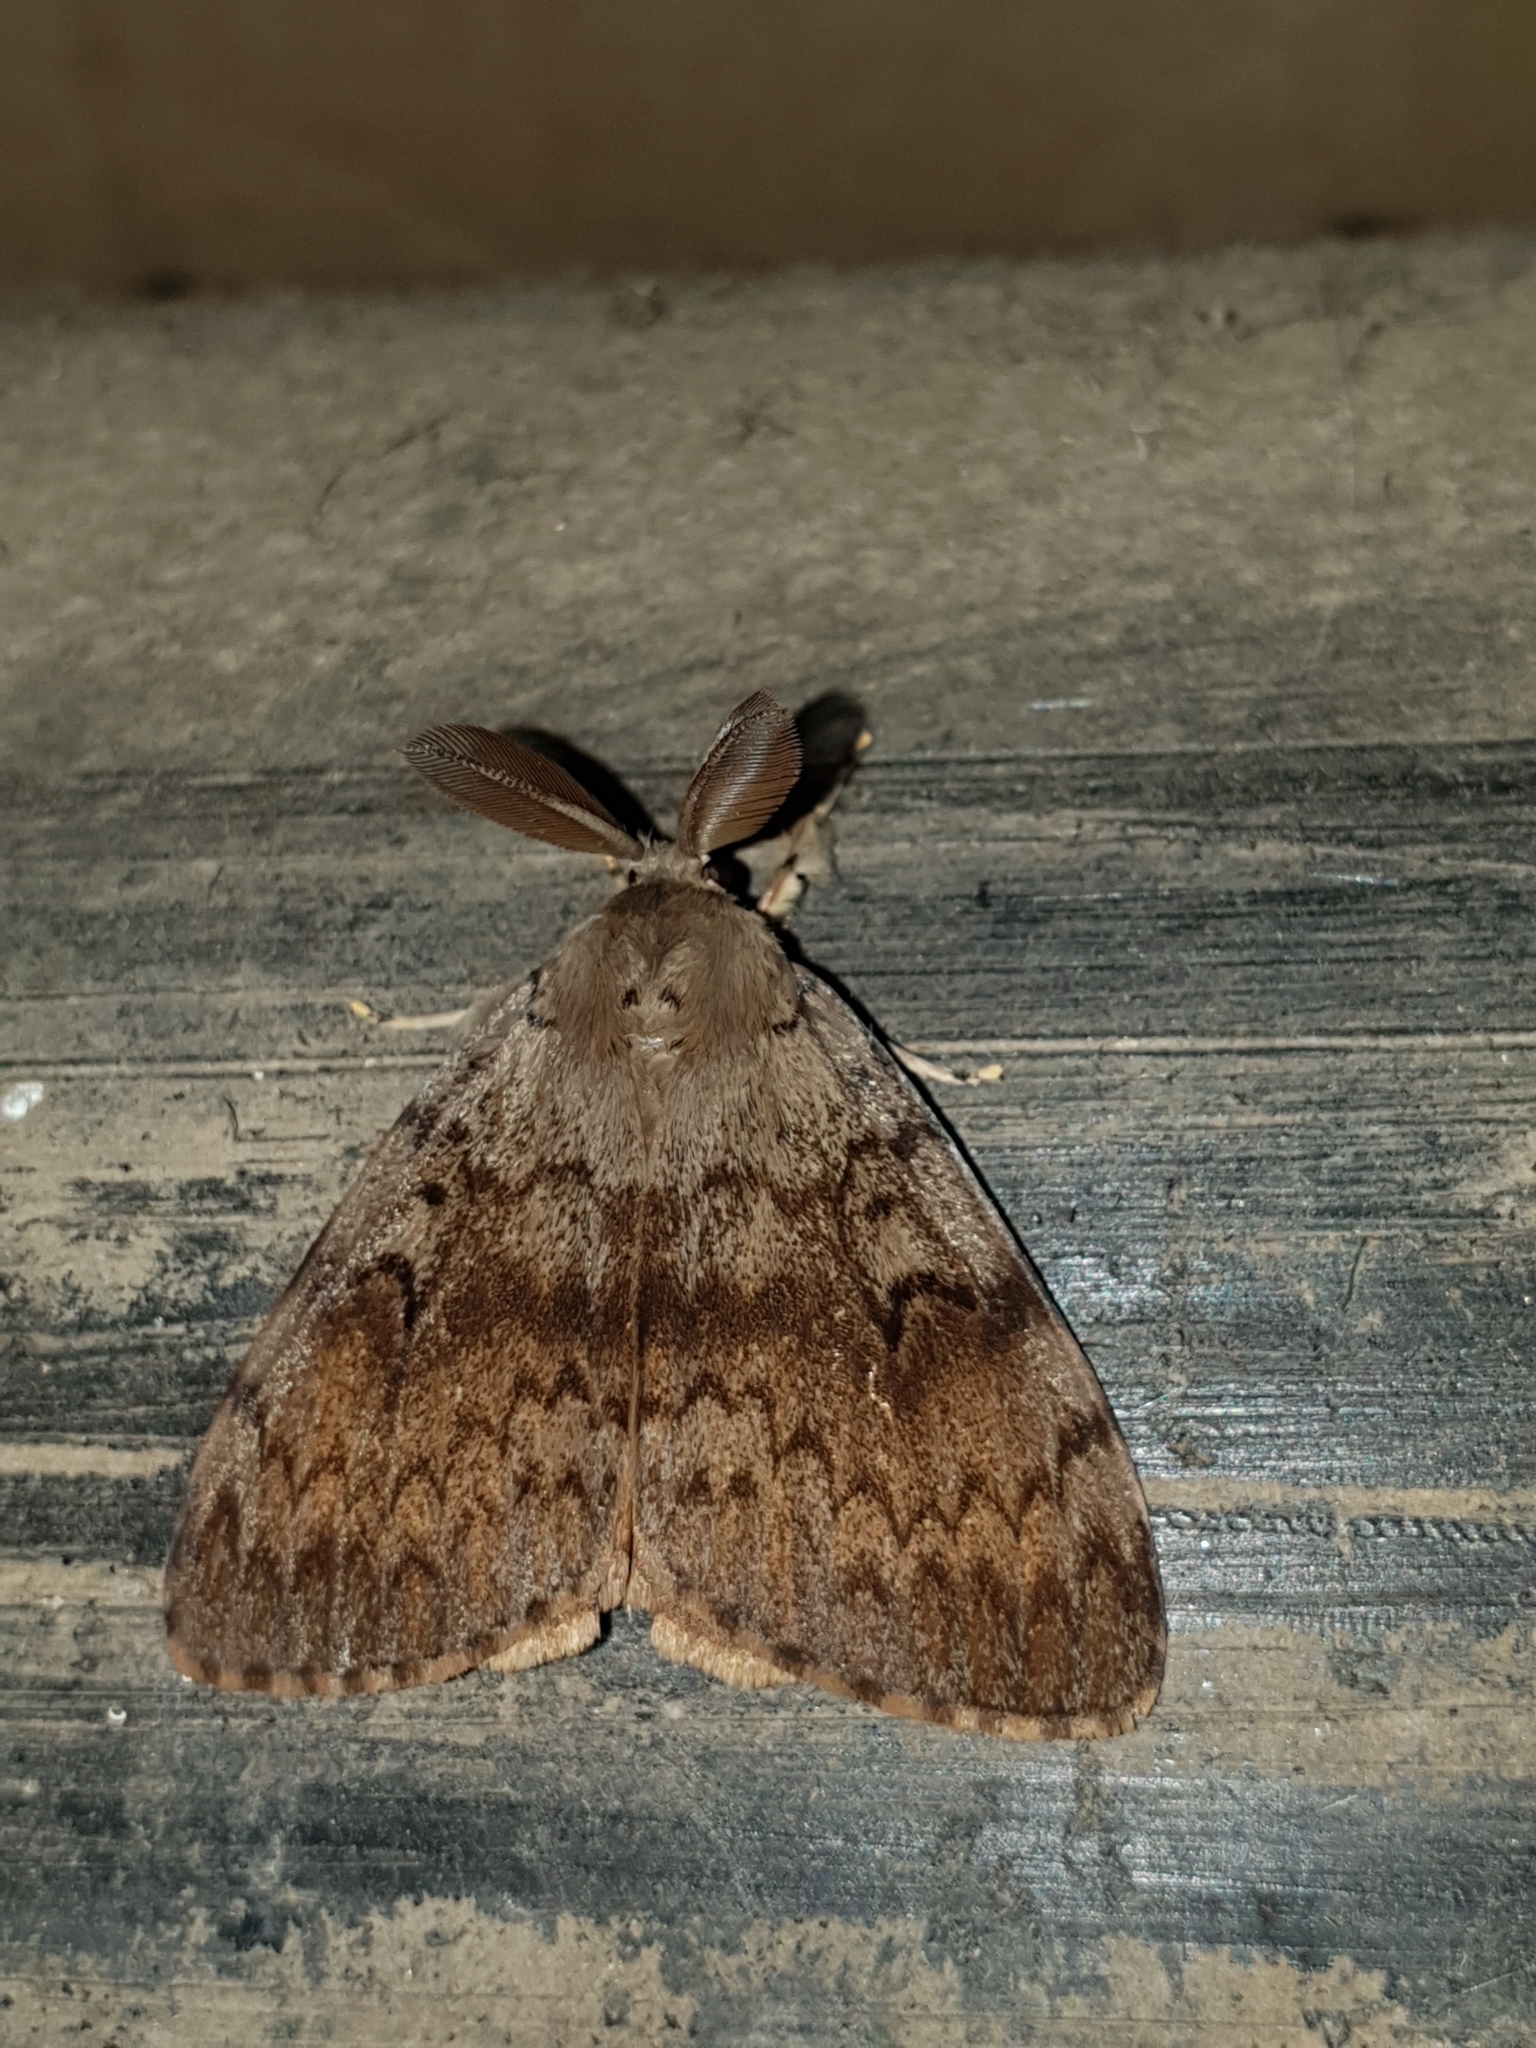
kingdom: Animalia
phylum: Arthropoda
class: Insecta
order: Lepidoptera
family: Erebidae
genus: Lymantria
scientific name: Lymantria dispar
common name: Gypsy moth
